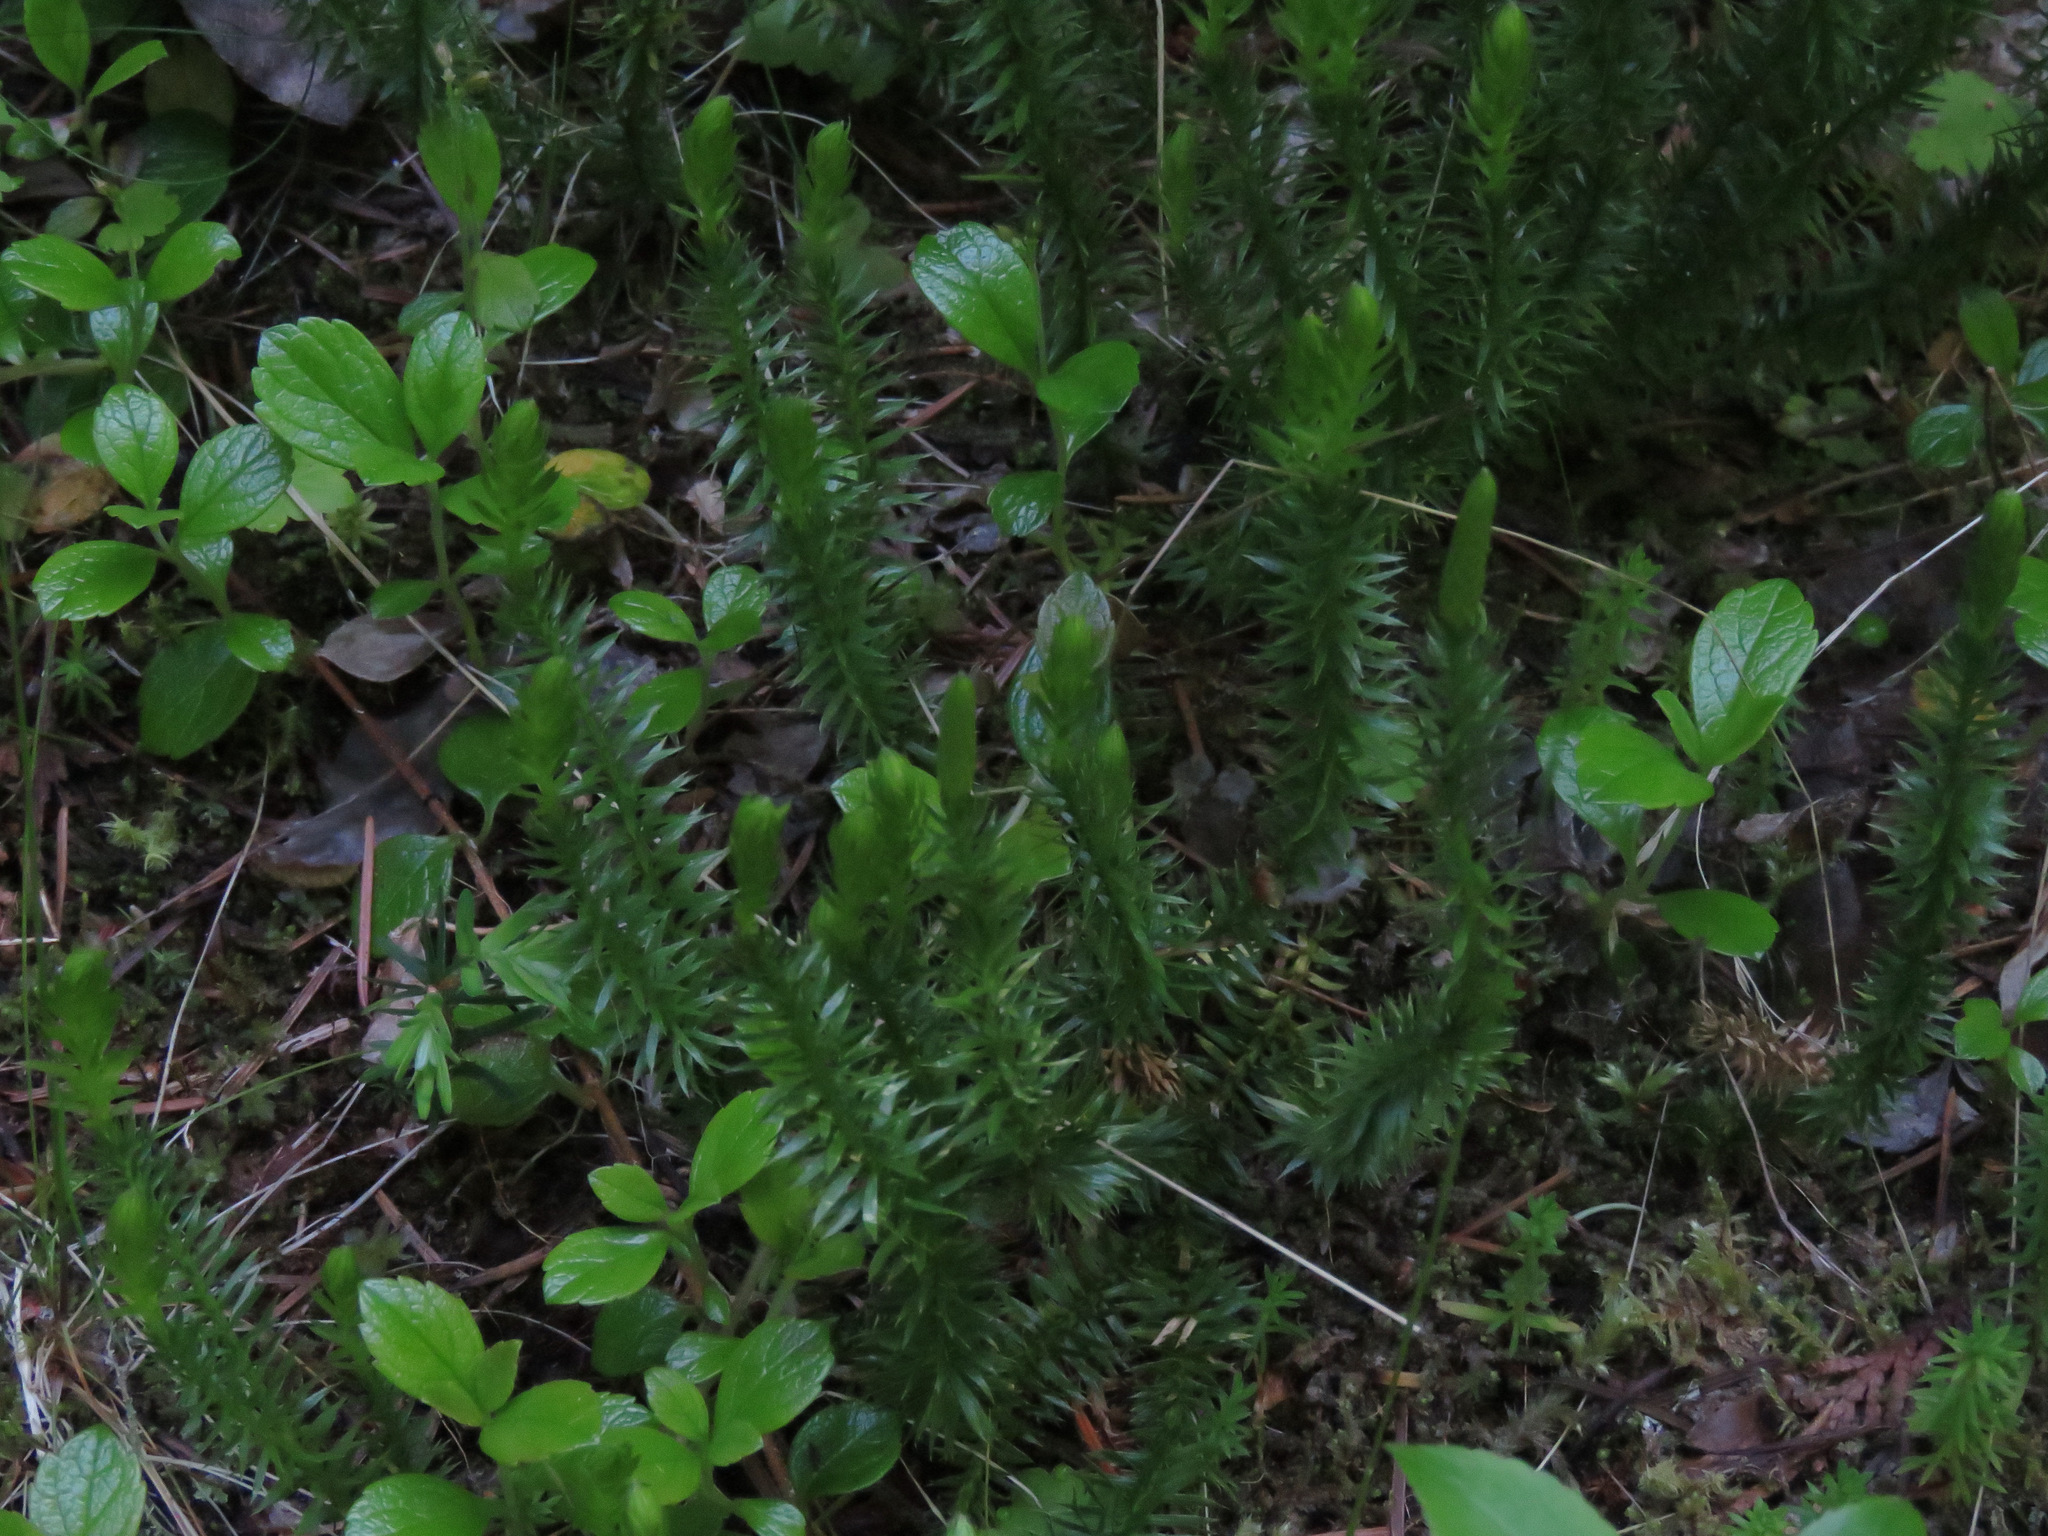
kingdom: Plantae
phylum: Tracheophyta
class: Lycopodiopsida
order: Lycopodiales
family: Lycopodiaceae
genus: Spinulum
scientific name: Spinulum annotinum
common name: Interrupted club-moss
